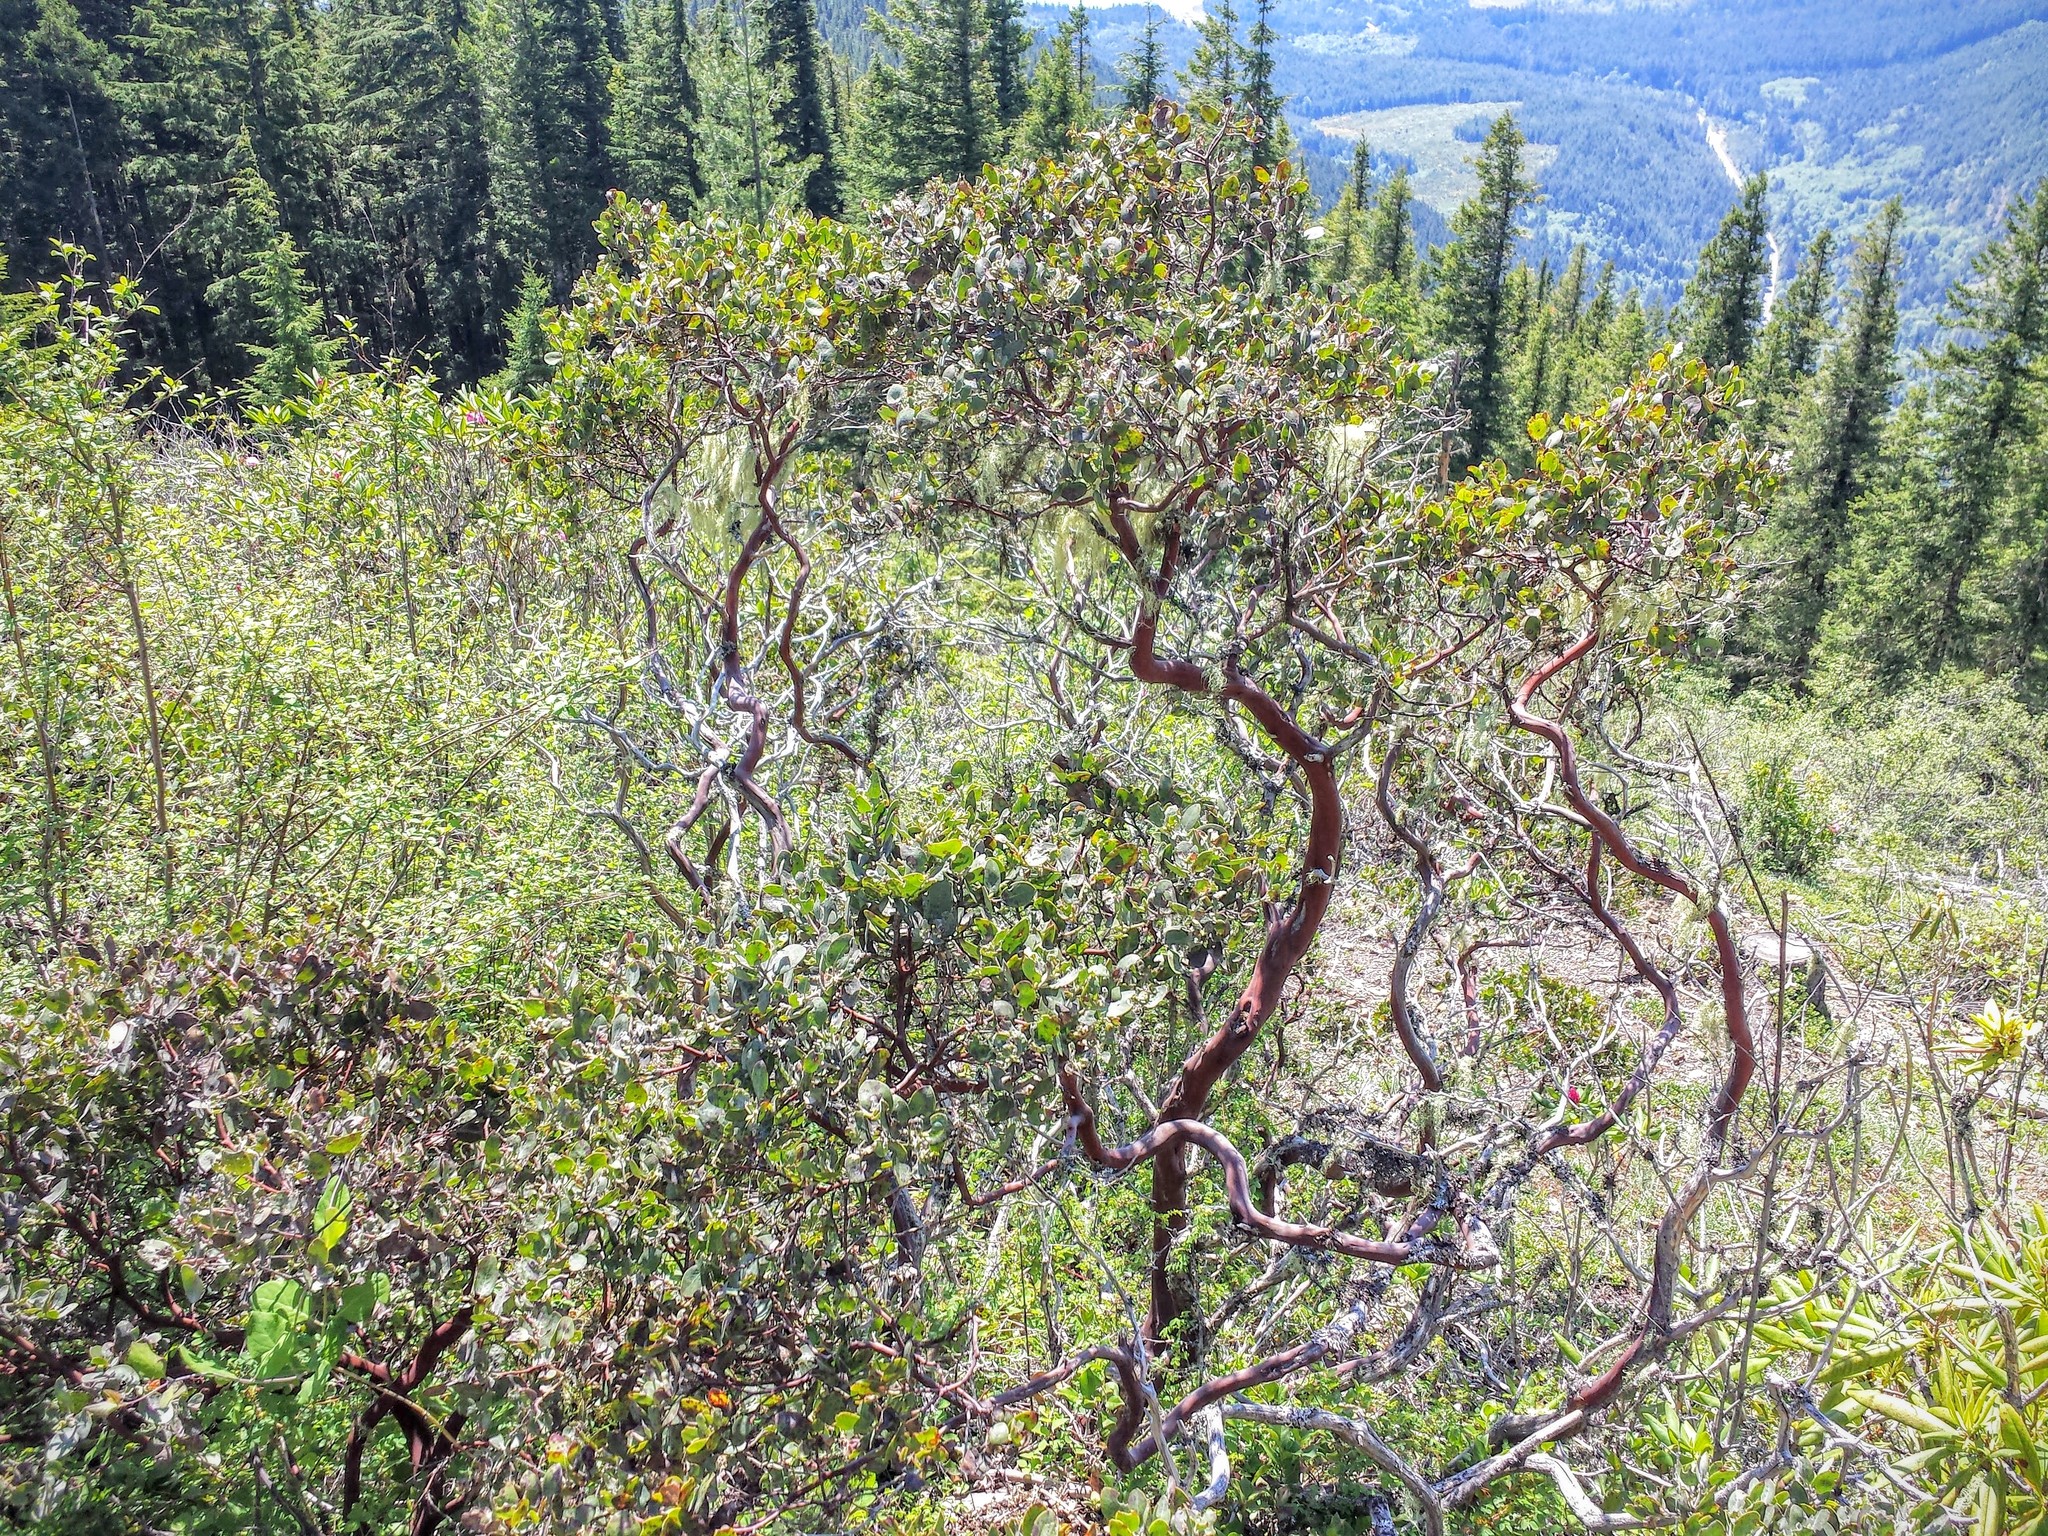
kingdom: Plantae
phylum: Tracheophyta
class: Magnoliopsida
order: Ericales
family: Ericaceae
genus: Arctostaphylos
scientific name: Arctostaphylos columbiana
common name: Bristly bearberry
